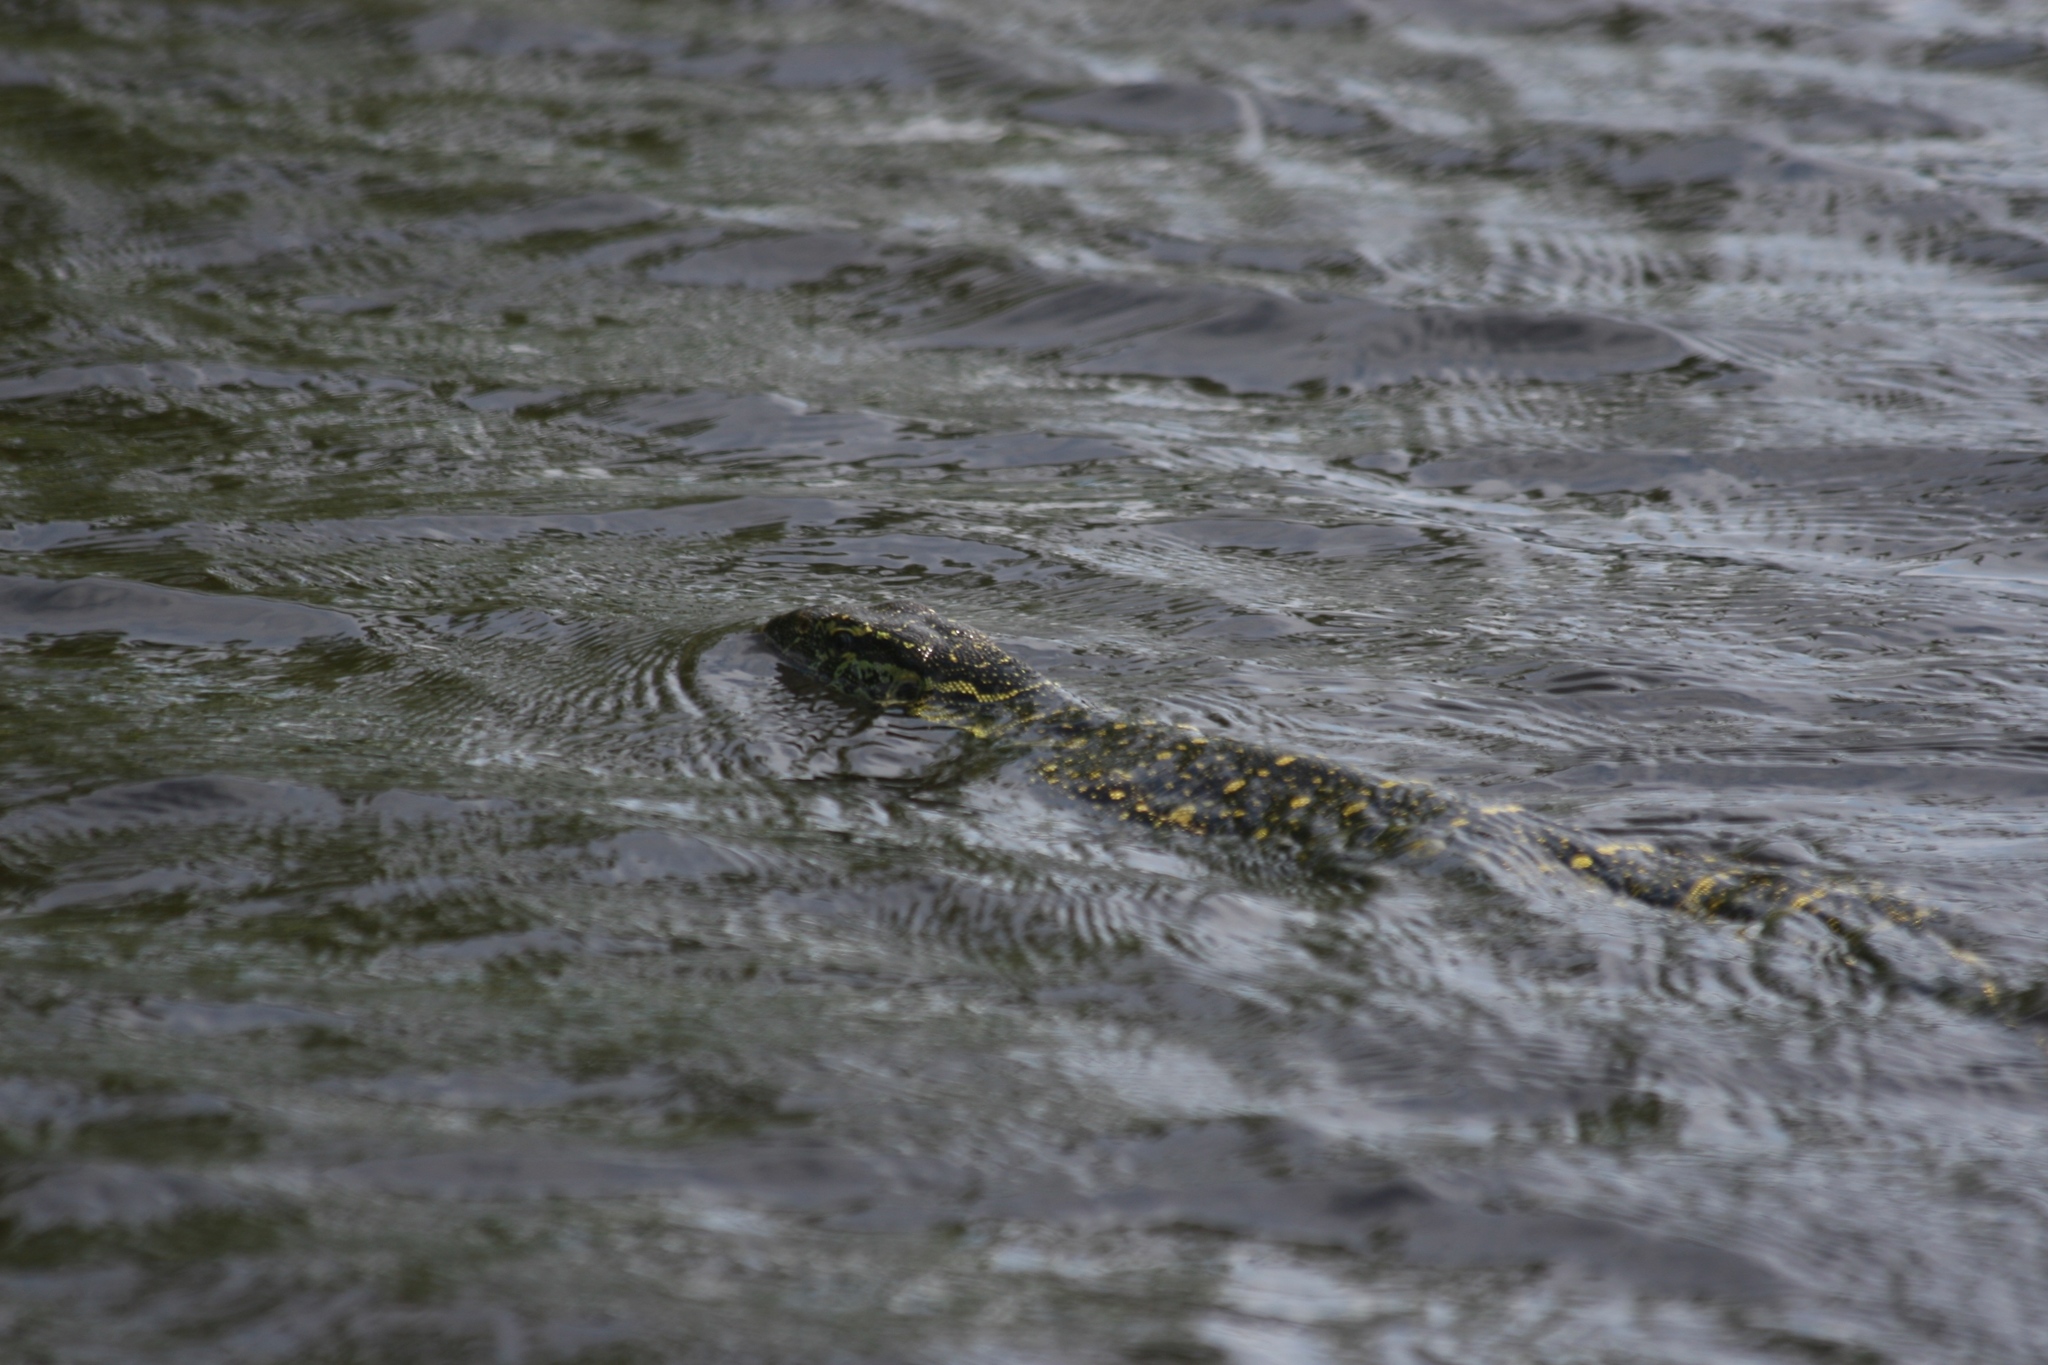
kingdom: Animalia
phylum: Chordata
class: Squamata
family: Varanidae
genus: Varanus
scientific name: Varanus niloticus
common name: Nile monitor
